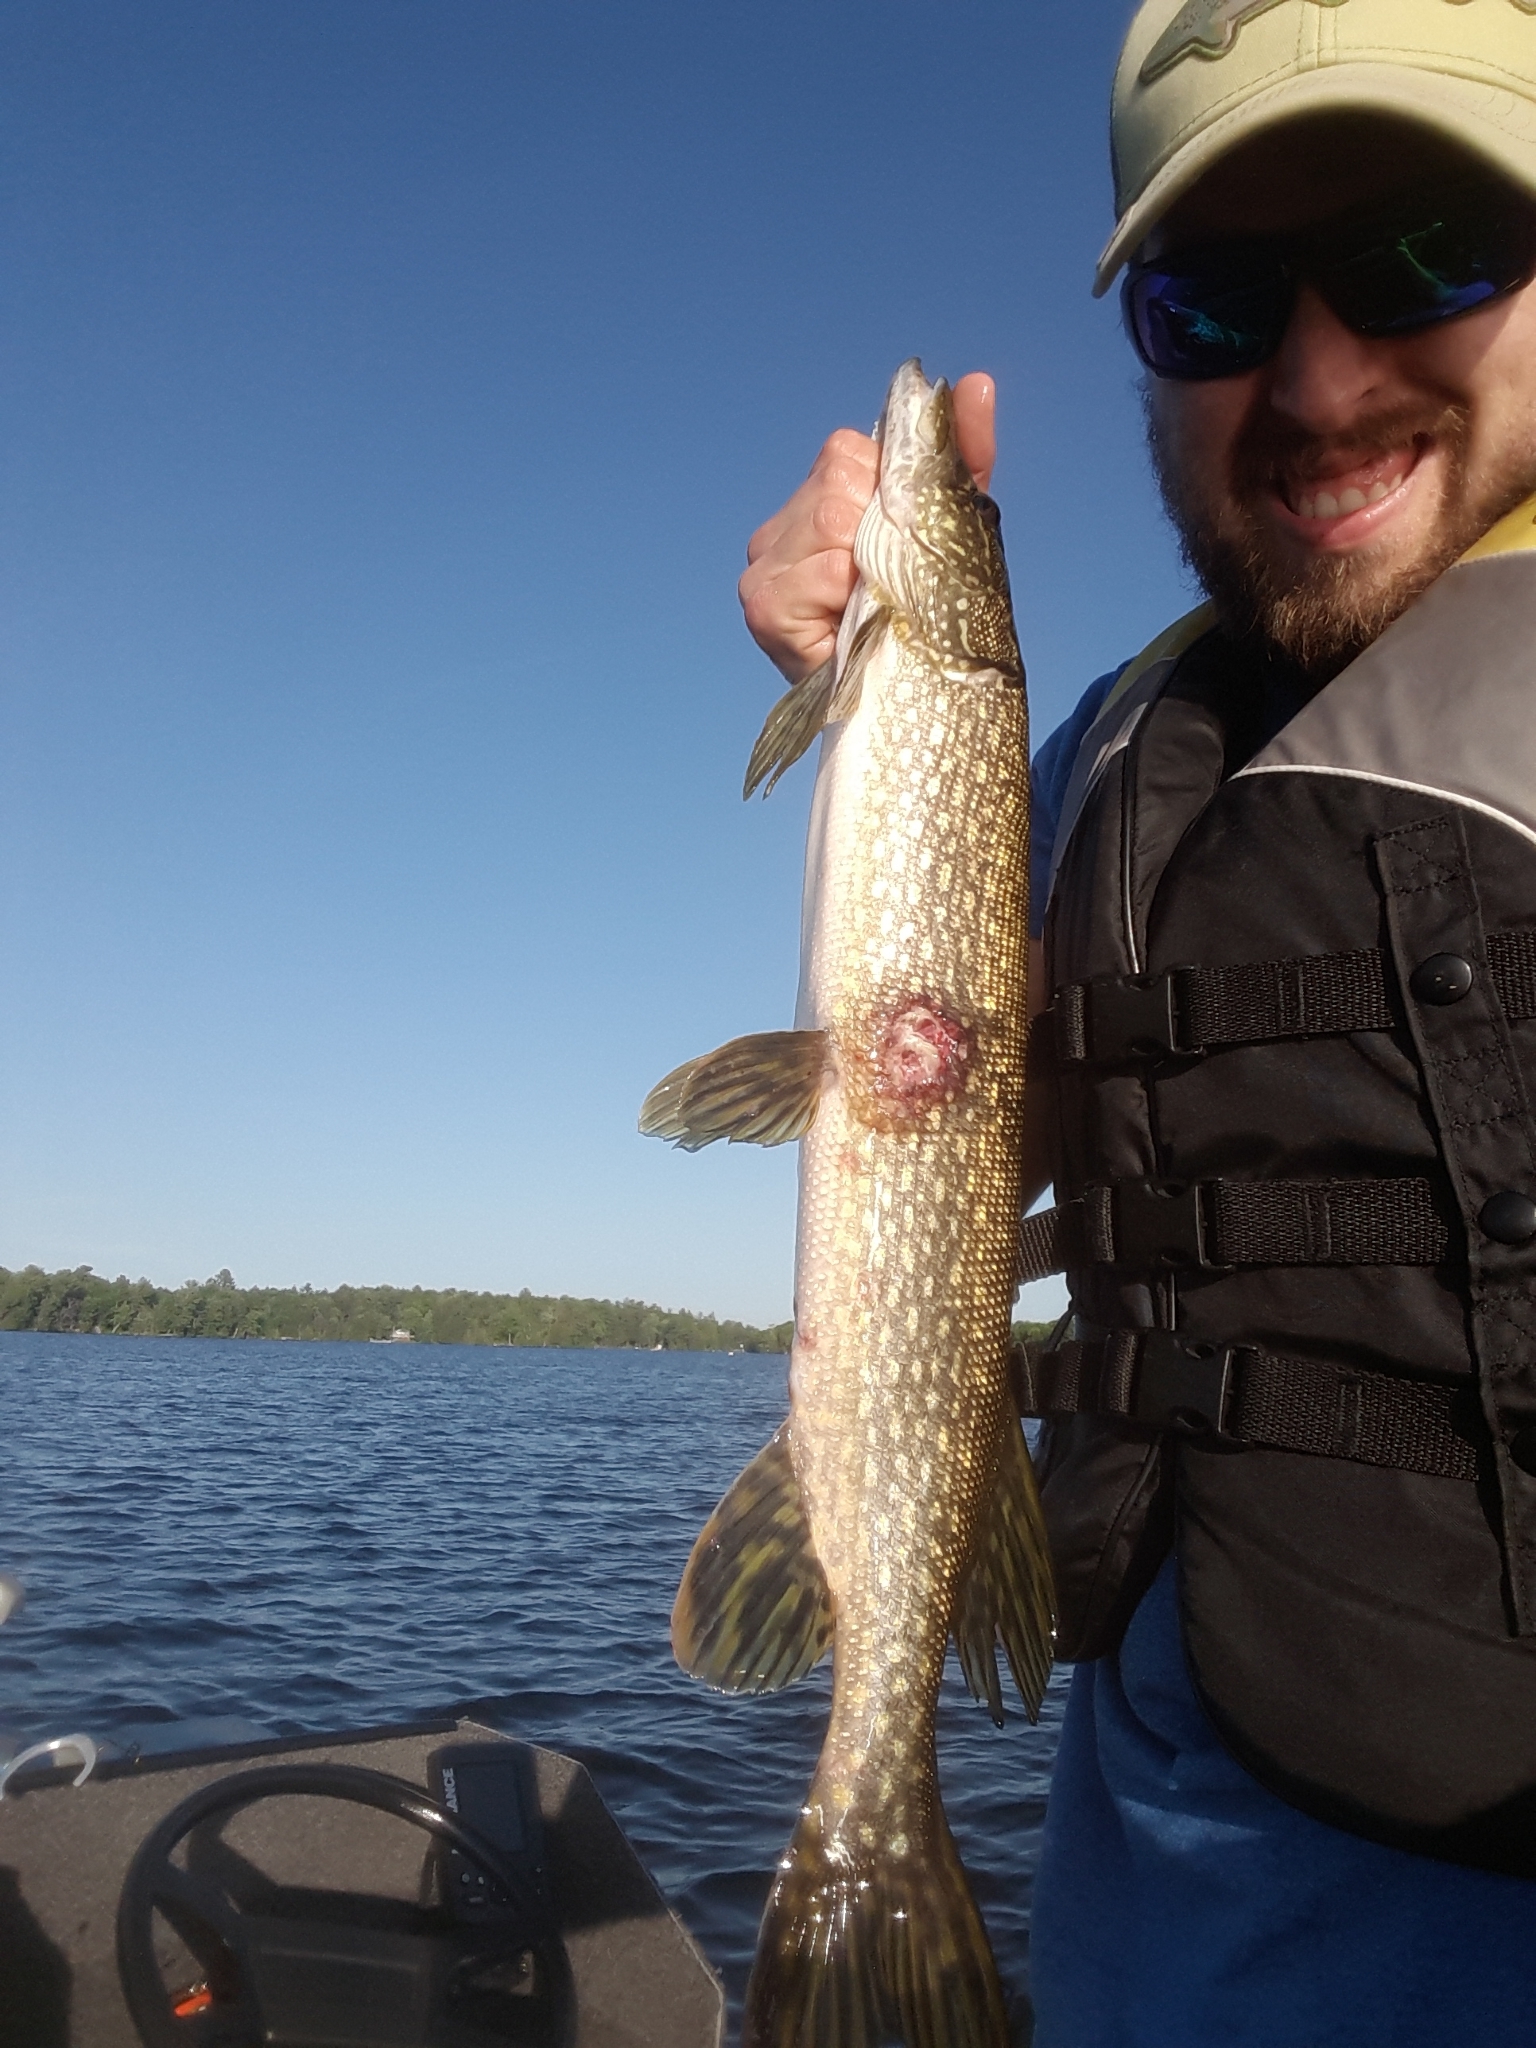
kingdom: Animalia
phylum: Chordata
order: Esociformes
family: Esocidae
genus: Esox
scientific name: Esox lucius
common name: Northern pike
